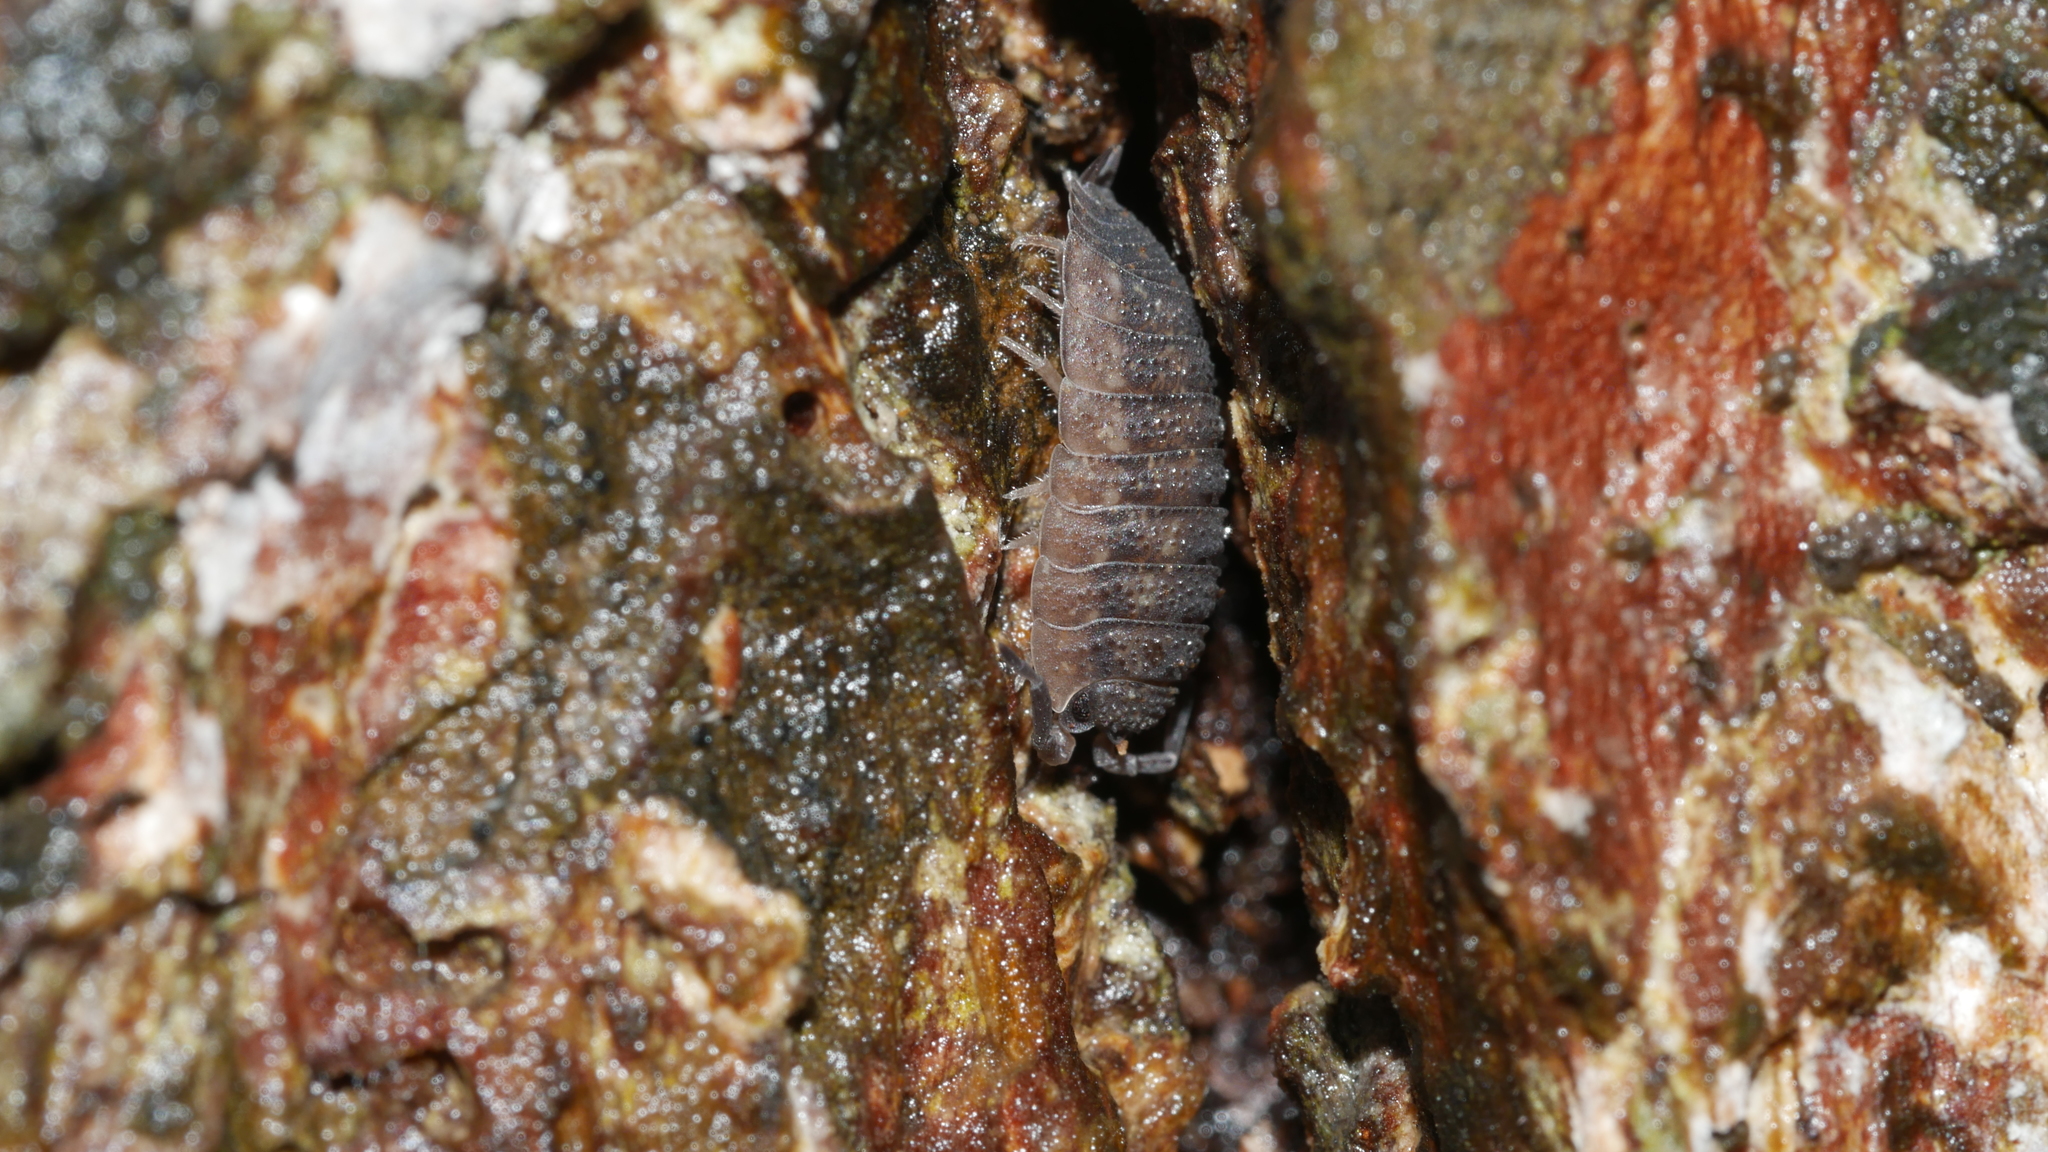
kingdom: Animalia
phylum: Arthropoda
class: Malacostraca
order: Isopoda
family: Porcellionidae
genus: Porcellio
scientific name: Porcellio scaber
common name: Common rough woodlouse
